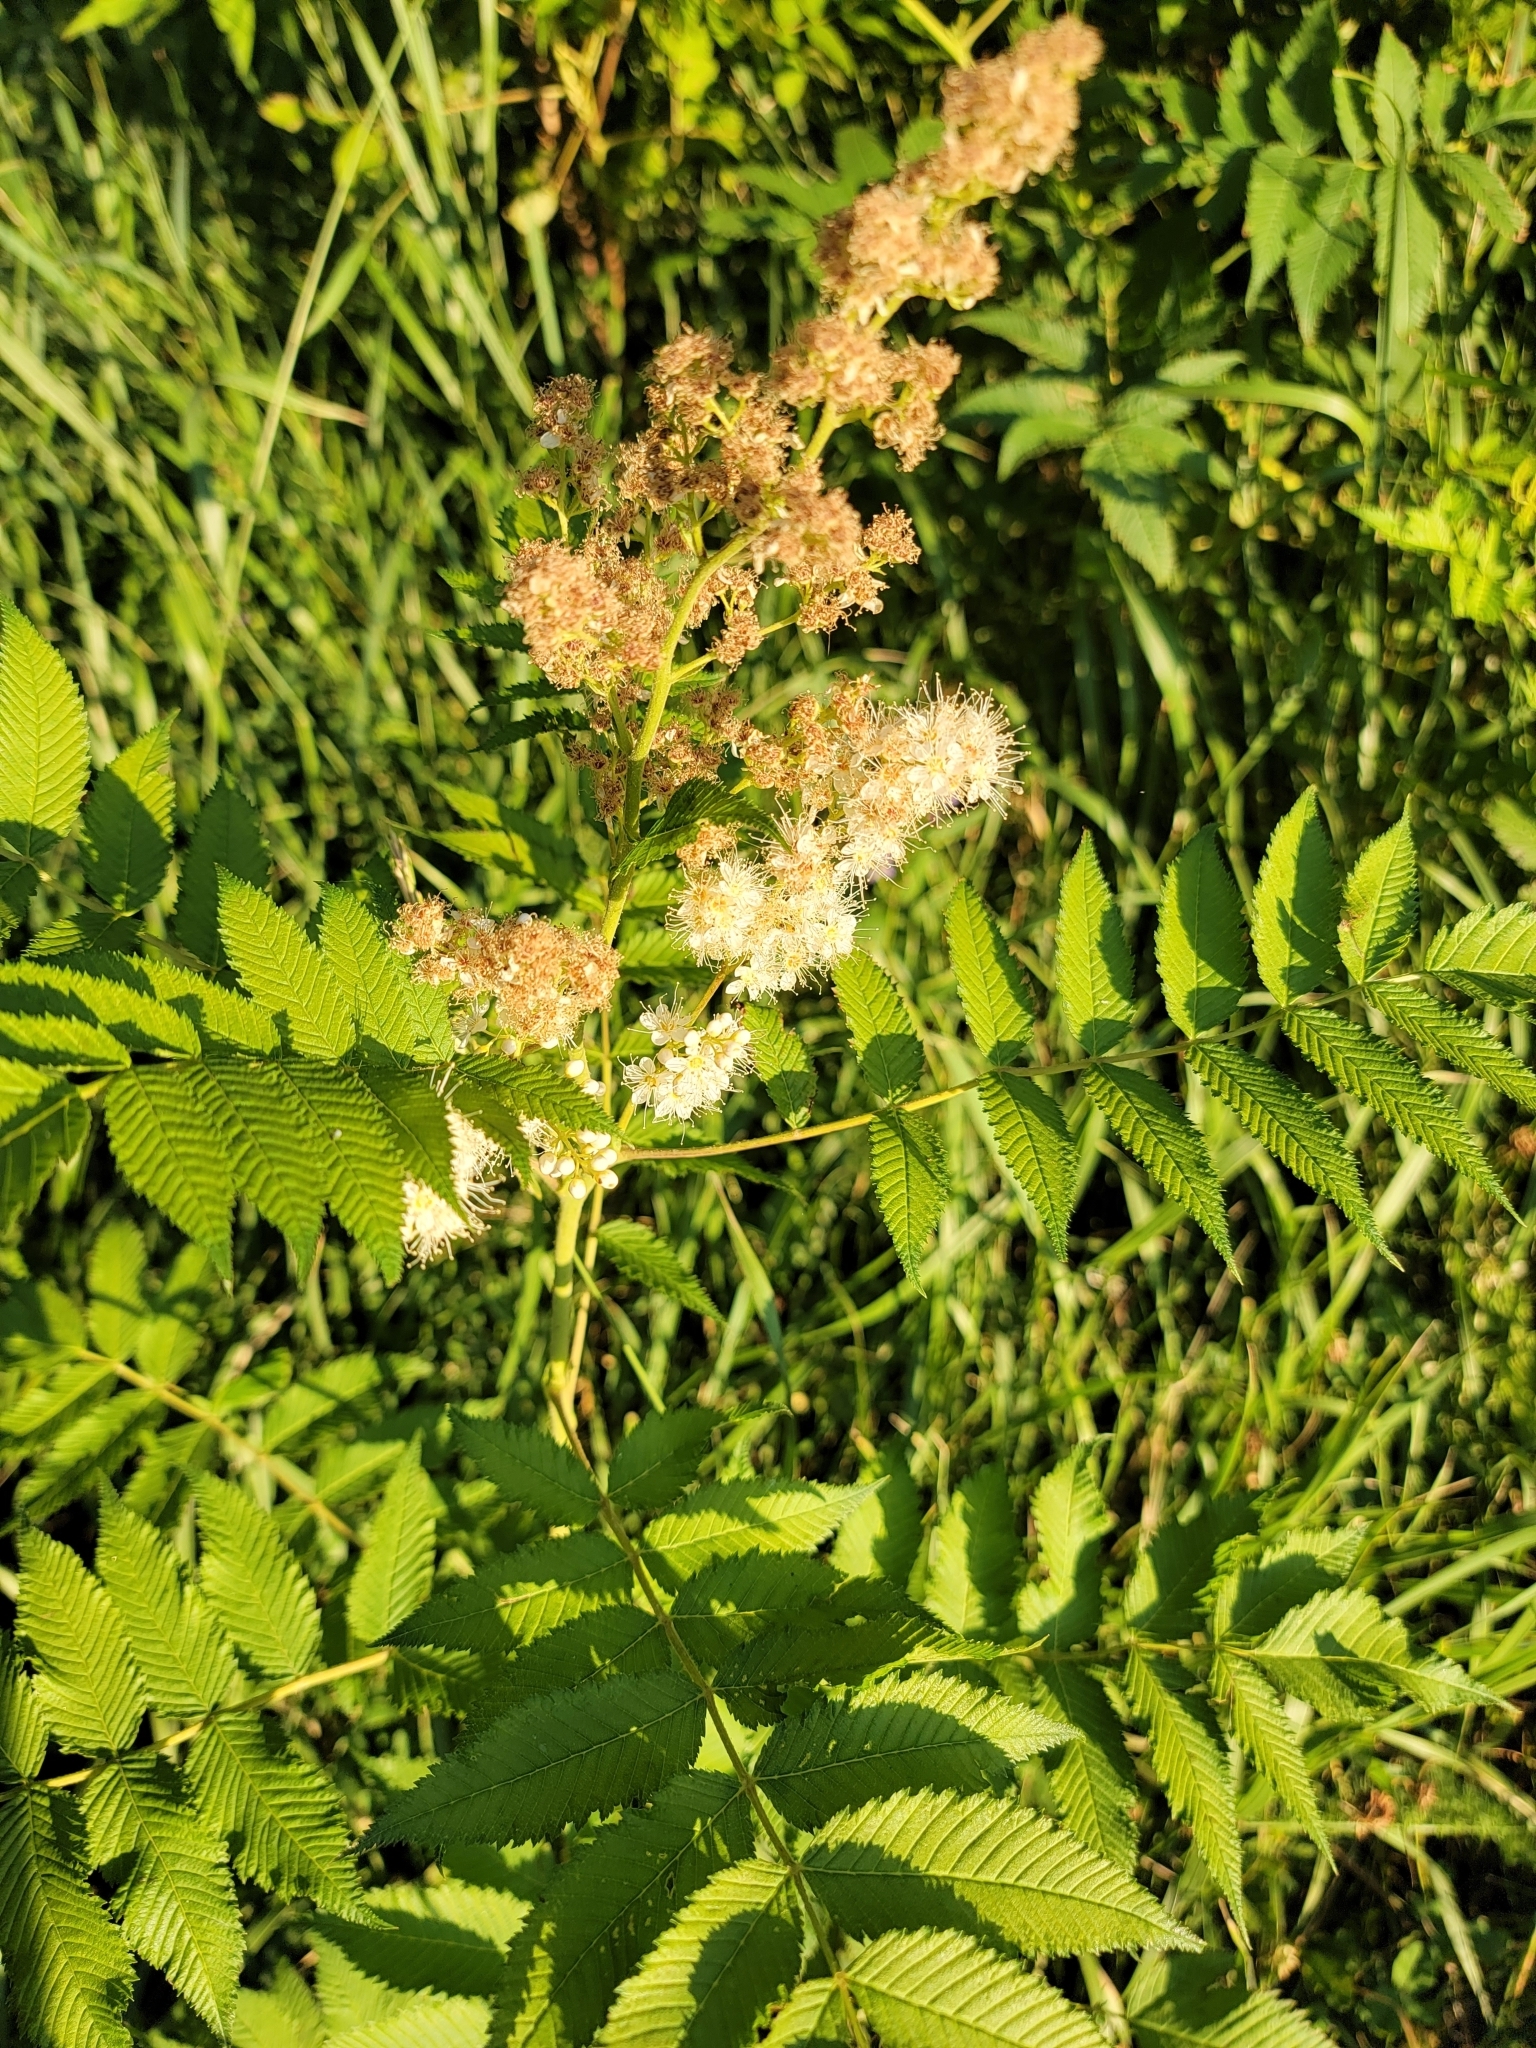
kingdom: Plantae
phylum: Tracheophyta
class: Magnoliopsida
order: Rosales
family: Rosaceae
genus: Sorbaria
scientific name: Sorbaria sorbifolia
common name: False spiraea
